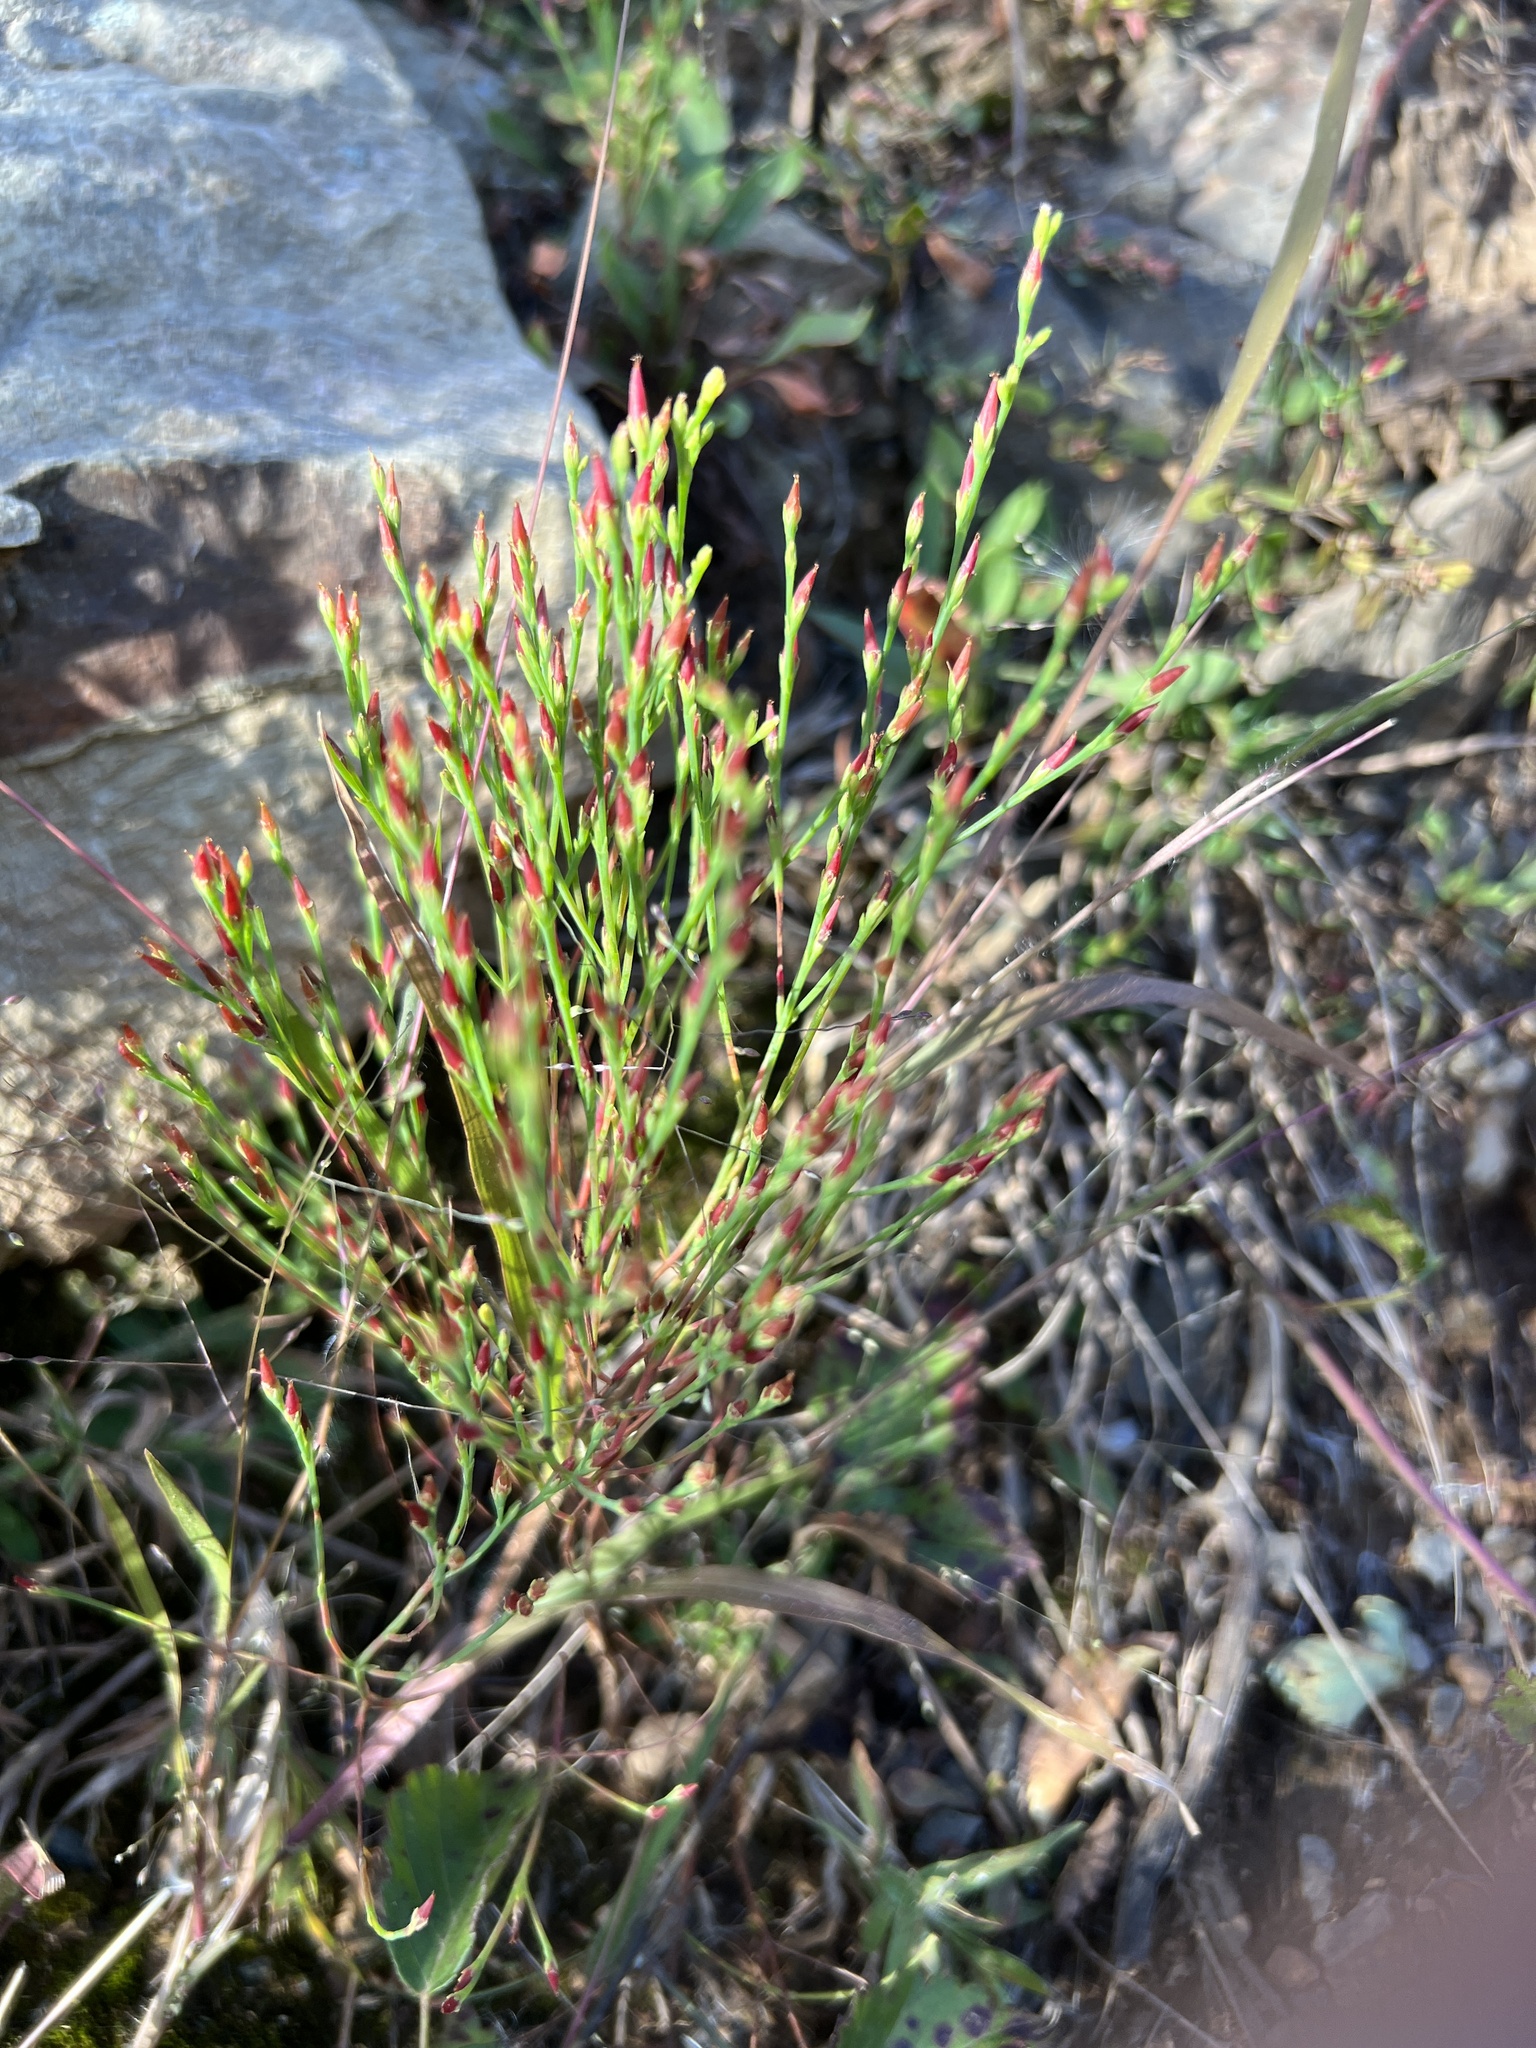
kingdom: Plantae
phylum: Tracheophyta
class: Magnoliopsida
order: Malpighiales
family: Hypericaceae
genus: Hypericum
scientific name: Hypericum gentianoides
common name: Gentian-leaved st. john's-wort
